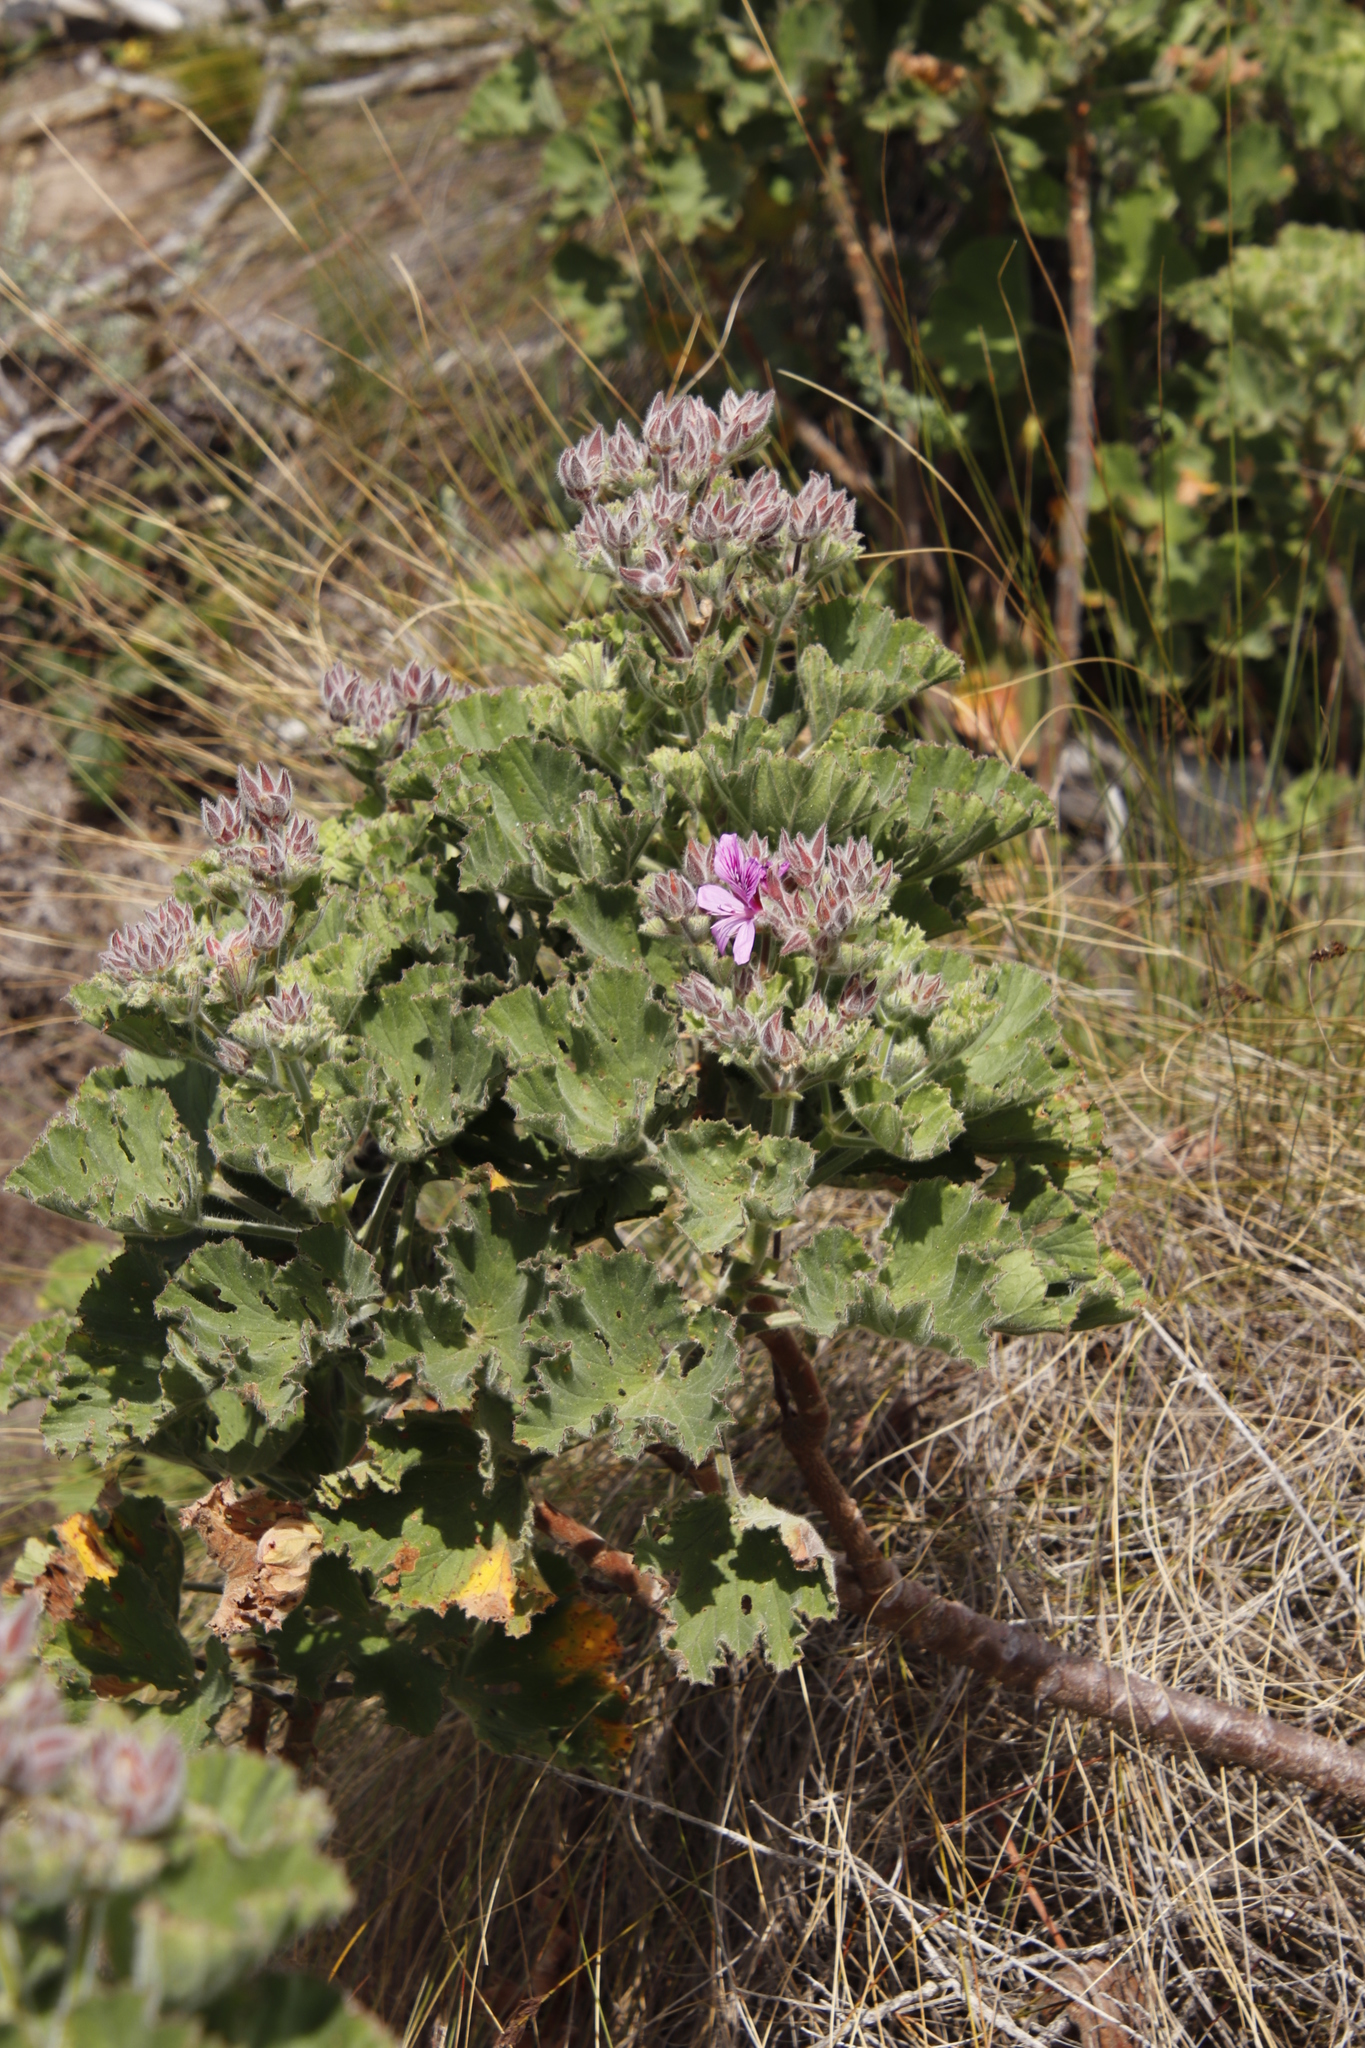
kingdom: Plantae
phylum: Tracheophyta
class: Magnoliopsida
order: Geraniales
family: Geraniaceae
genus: Pelargonium
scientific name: Pelargonium cucullatum
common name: Tree pelargonium
